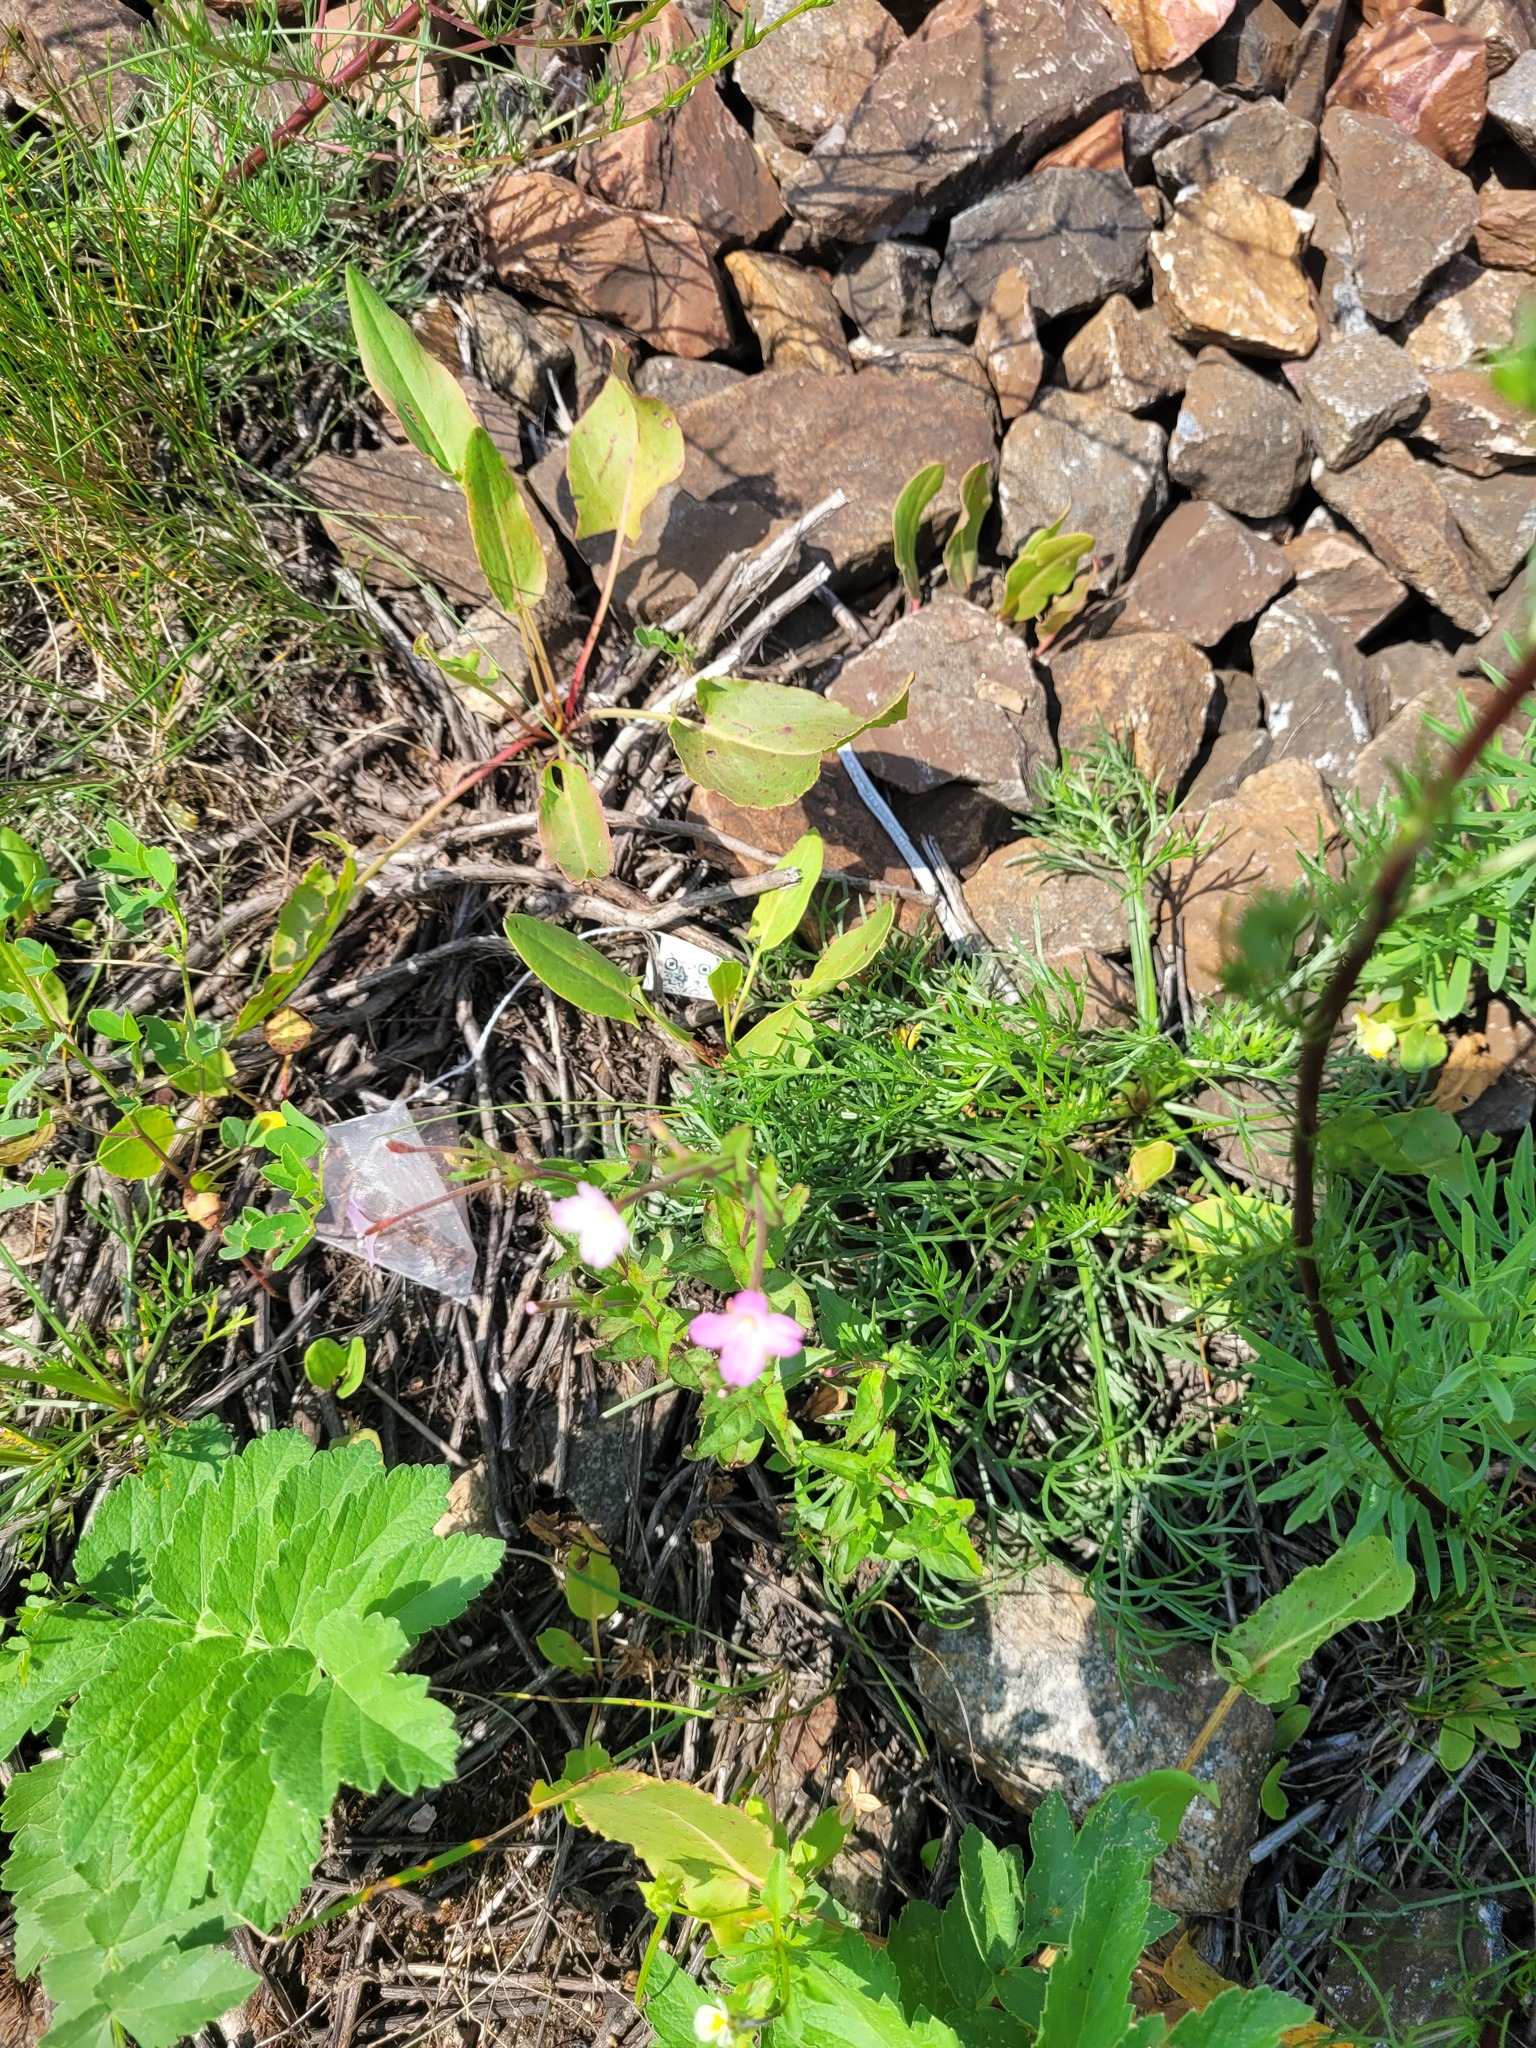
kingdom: Plantae
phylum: Tracheophyta
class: Magnoliopsida
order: Myrtales
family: Onagraceae
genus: Epilobium
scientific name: Epilobium montanum
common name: Broad-leaved willowherb
